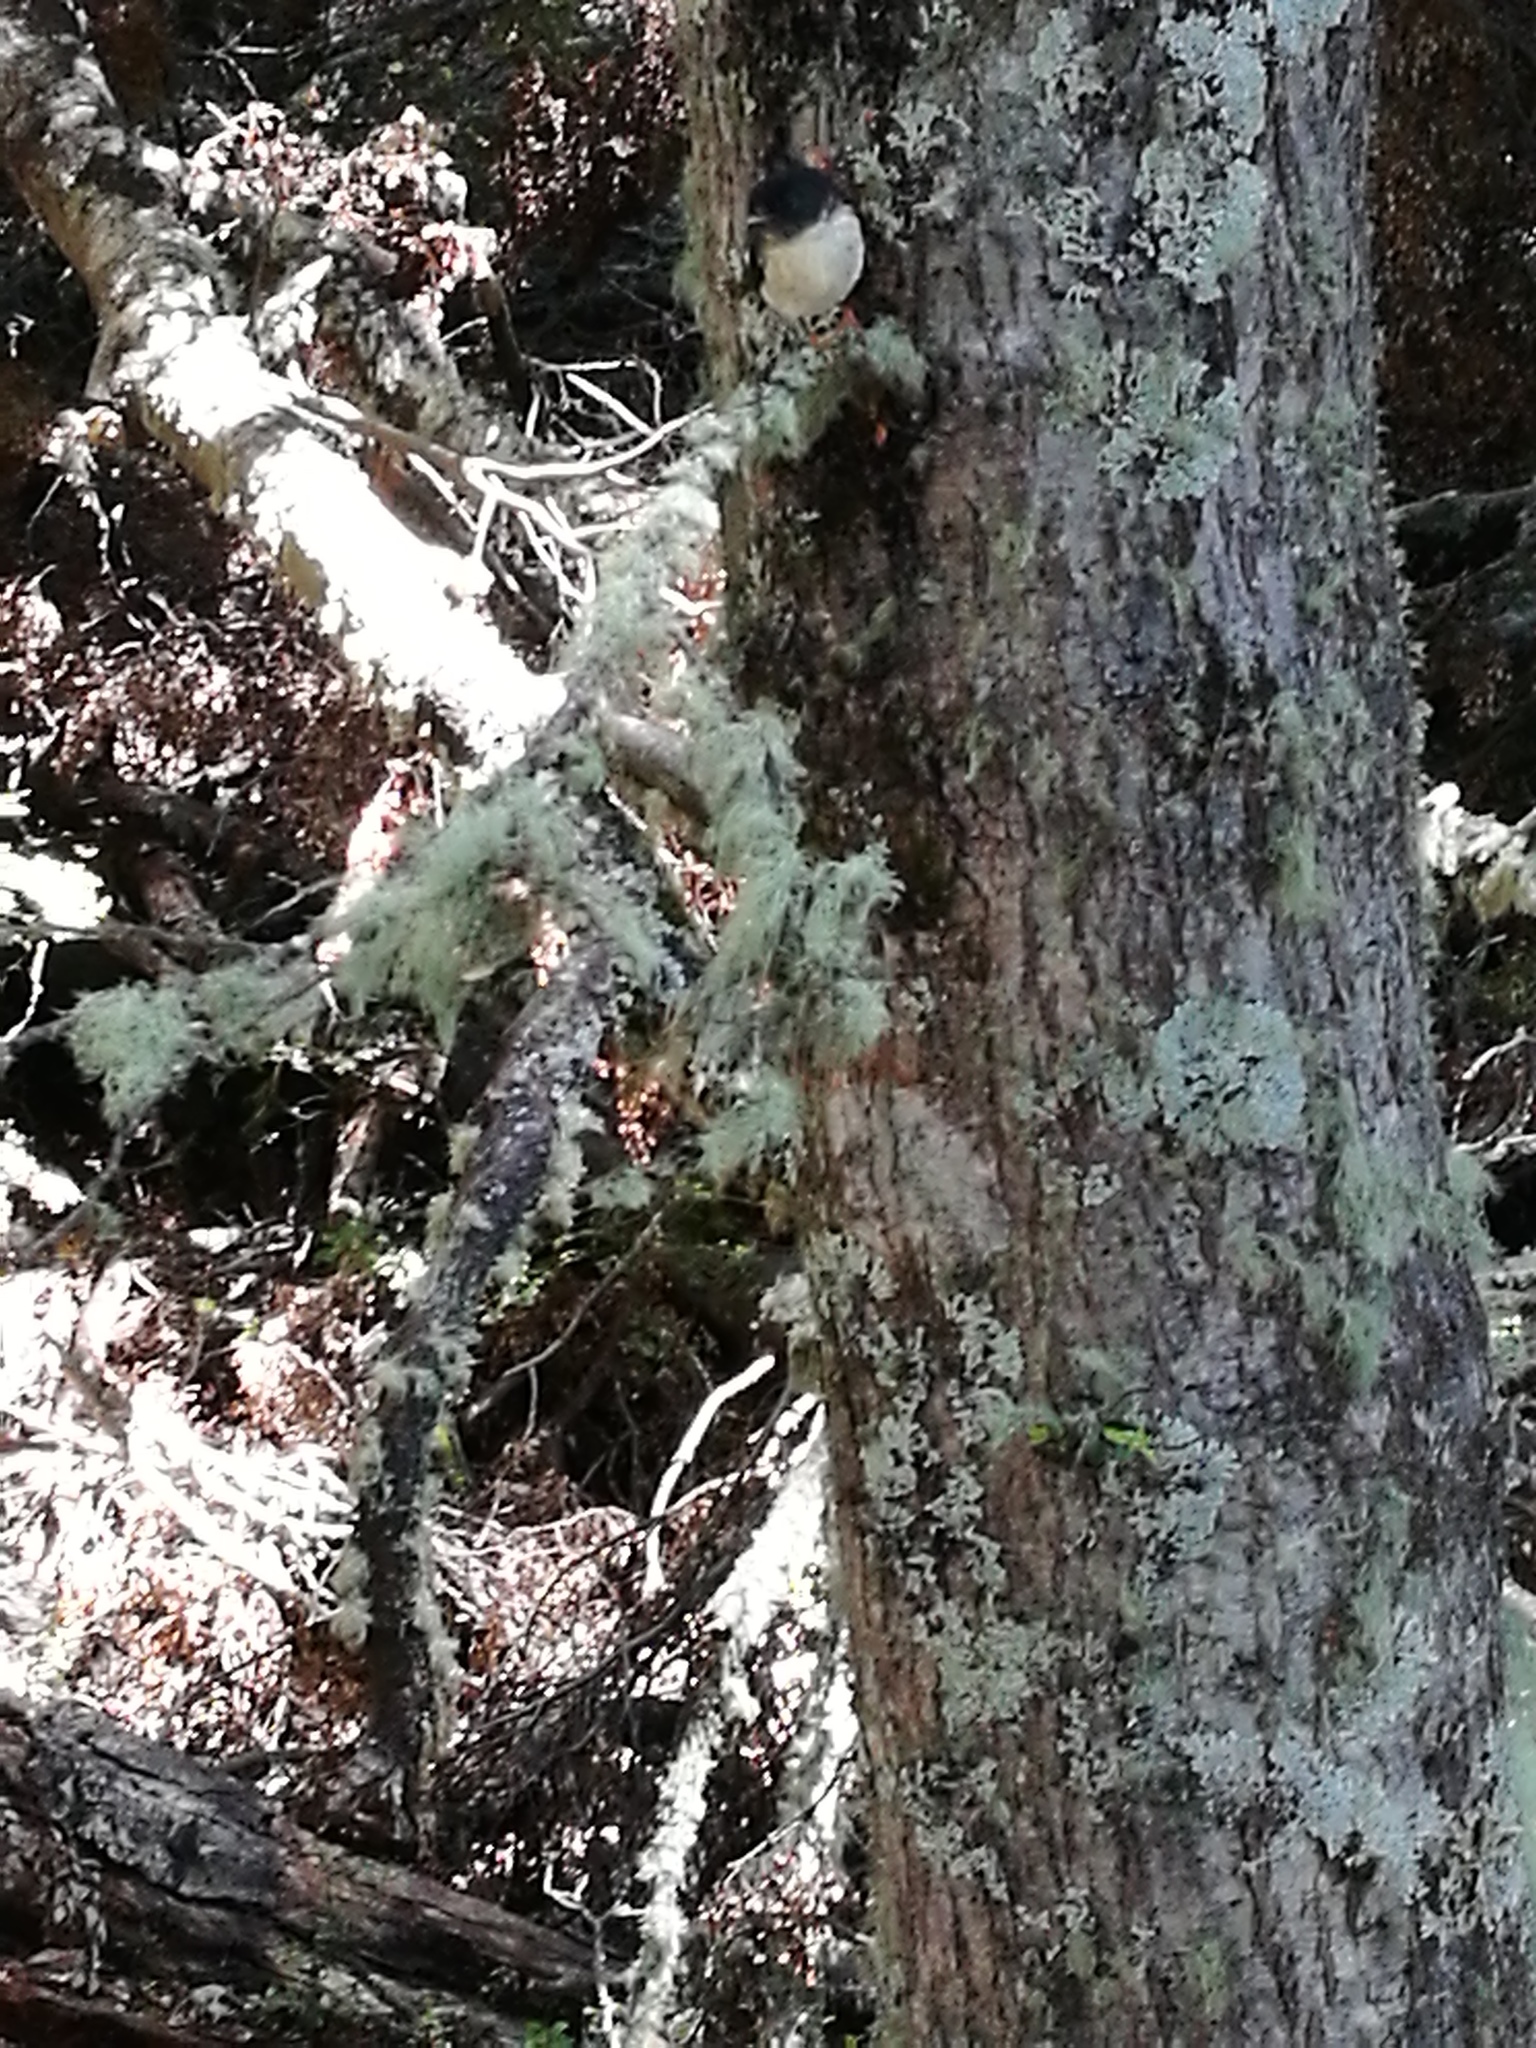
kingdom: Animalia
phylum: Chordata
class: Aves
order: Passeriformes
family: Petroicidae
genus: Petroica
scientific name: Petroica macrocephala
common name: Tomtit
